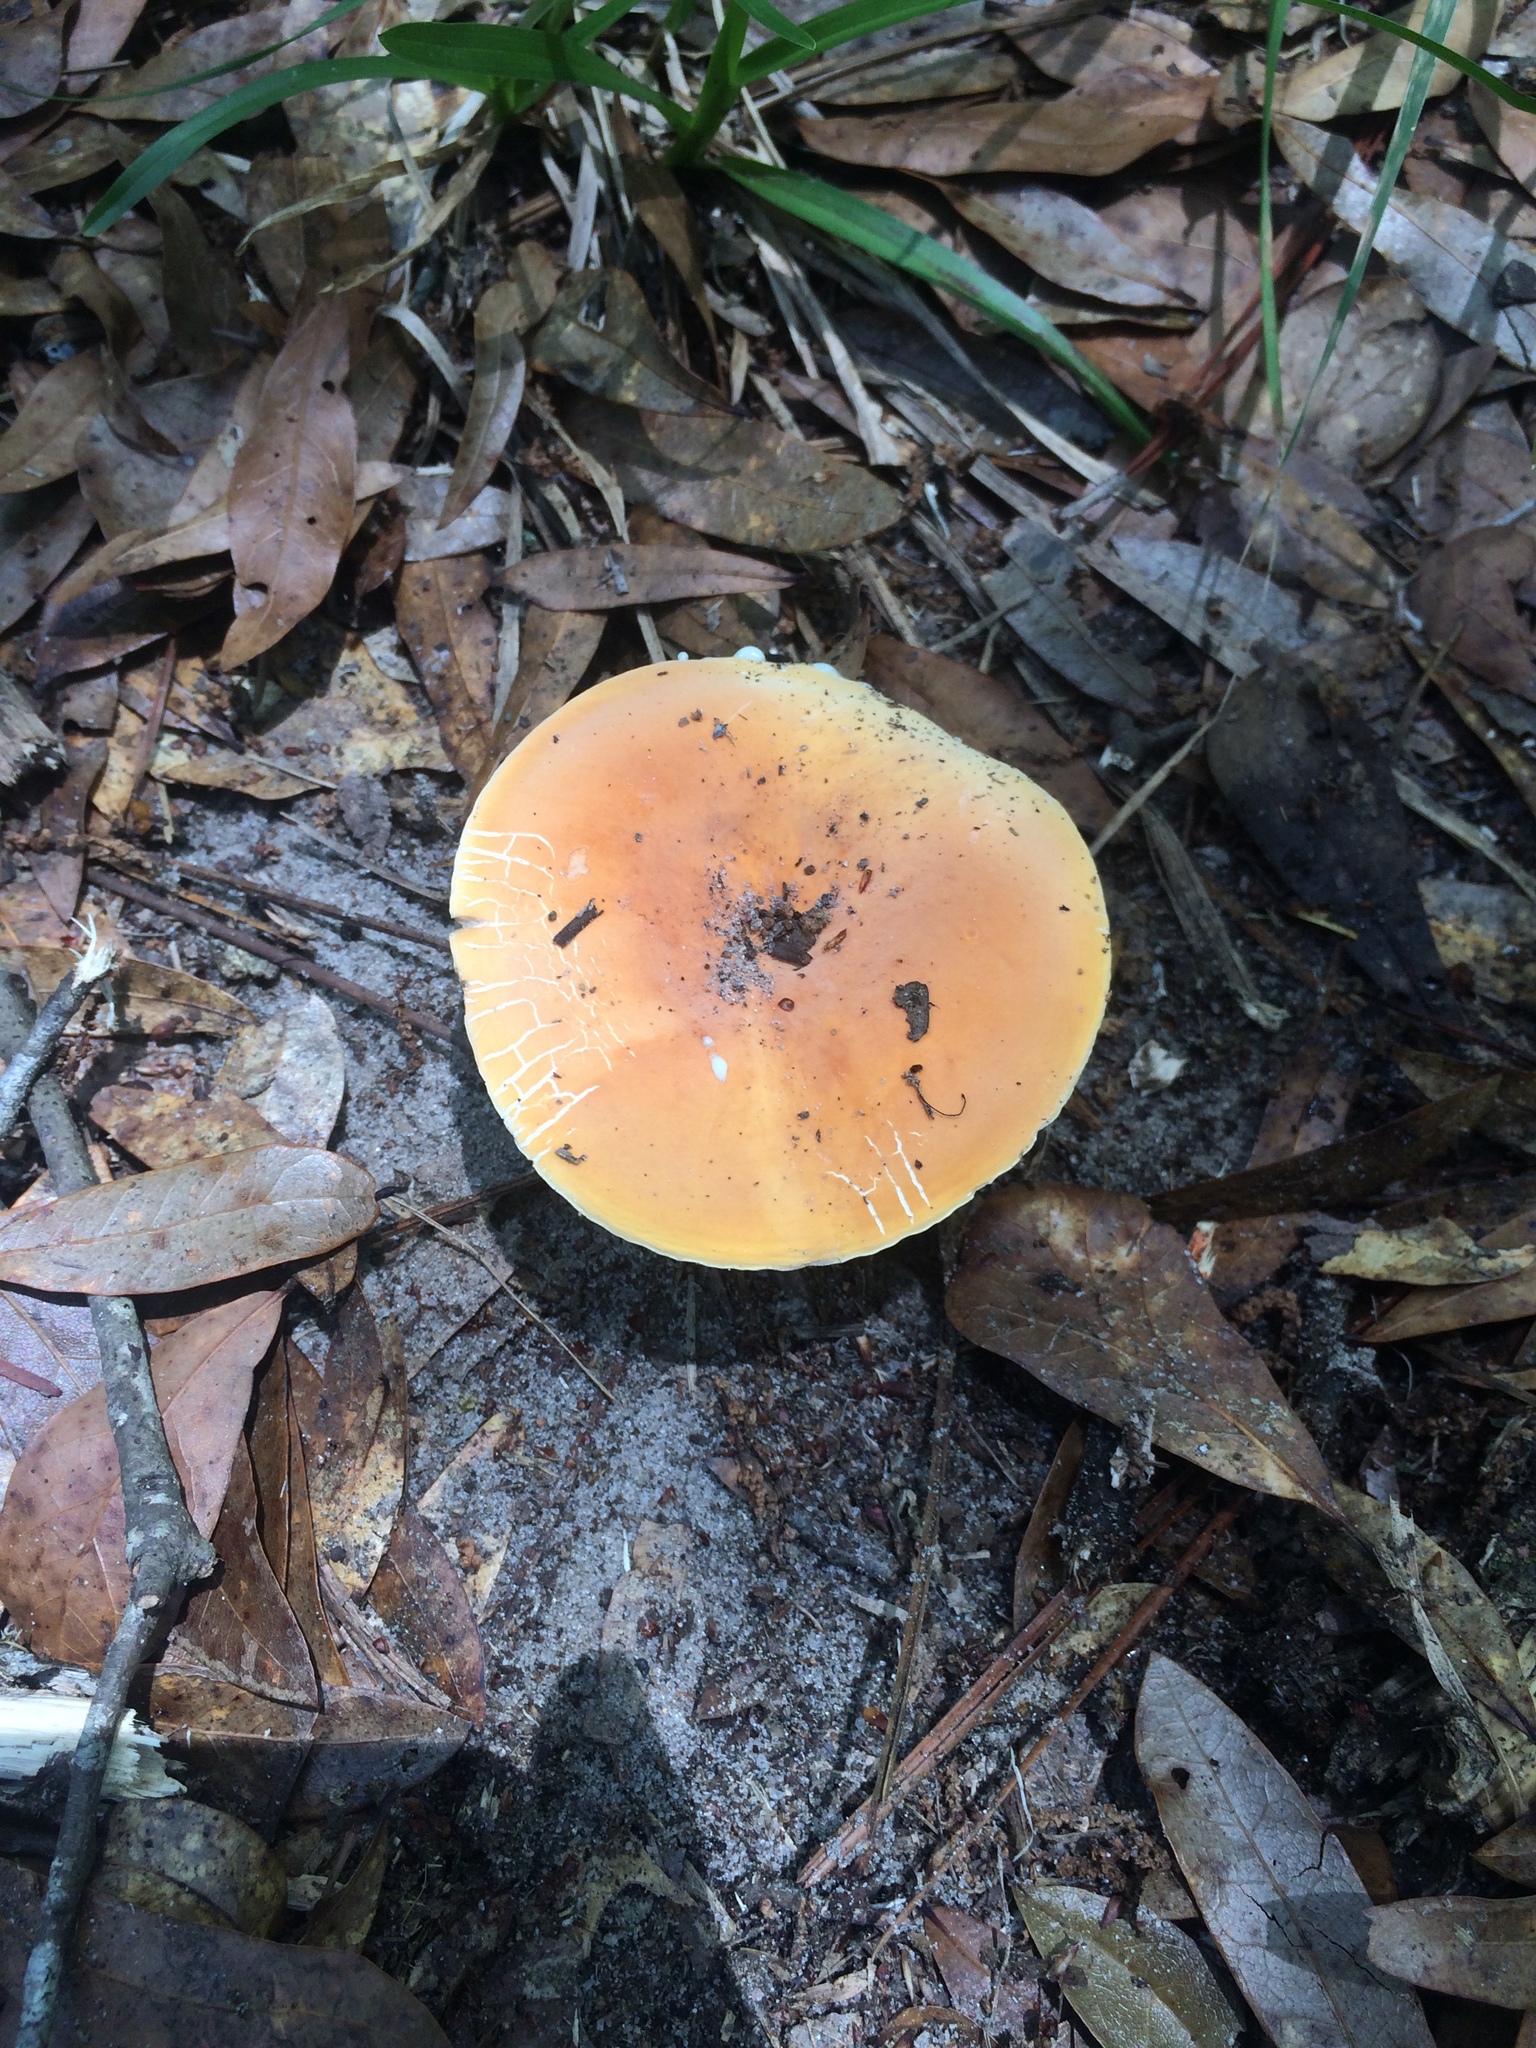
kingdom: Fungi
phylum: Basidiomycota
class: Agaricomycetes
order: Russulales
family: Russulaceae
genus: Lactarius
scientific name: Lactarius hygrophoroides
